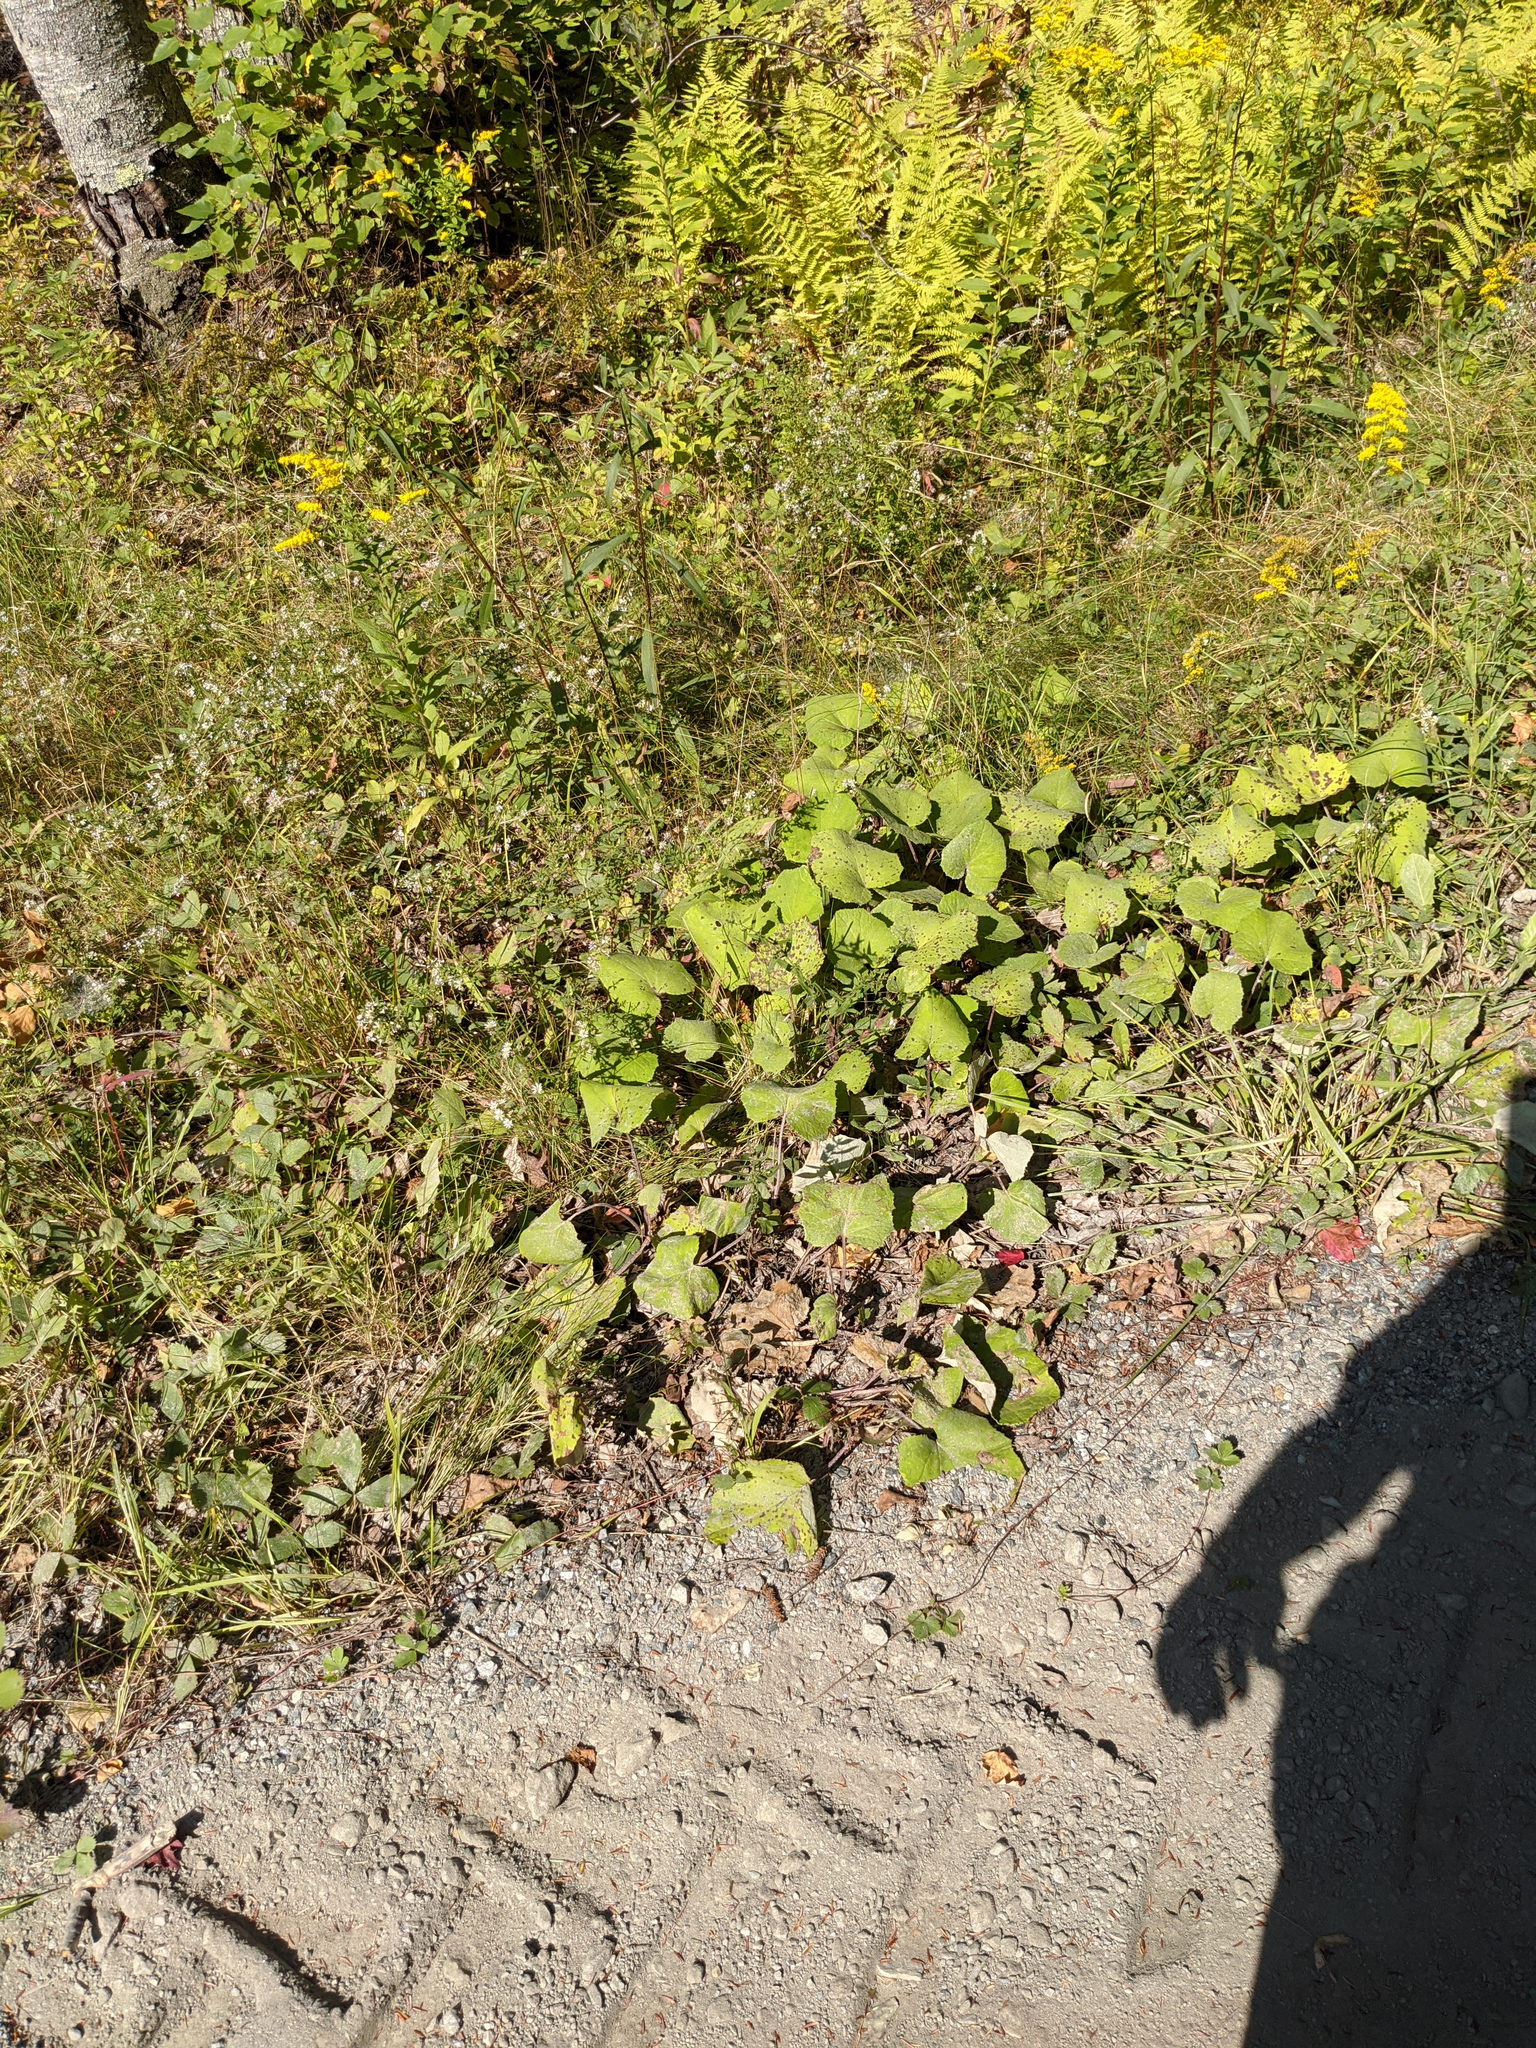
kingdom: Plantae
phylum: Tracheophyta
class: Magnoliopsida
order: Asterales
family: Asteraceae
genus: Tussilago
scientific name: Tussilago farfara
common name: Coltsfoot
